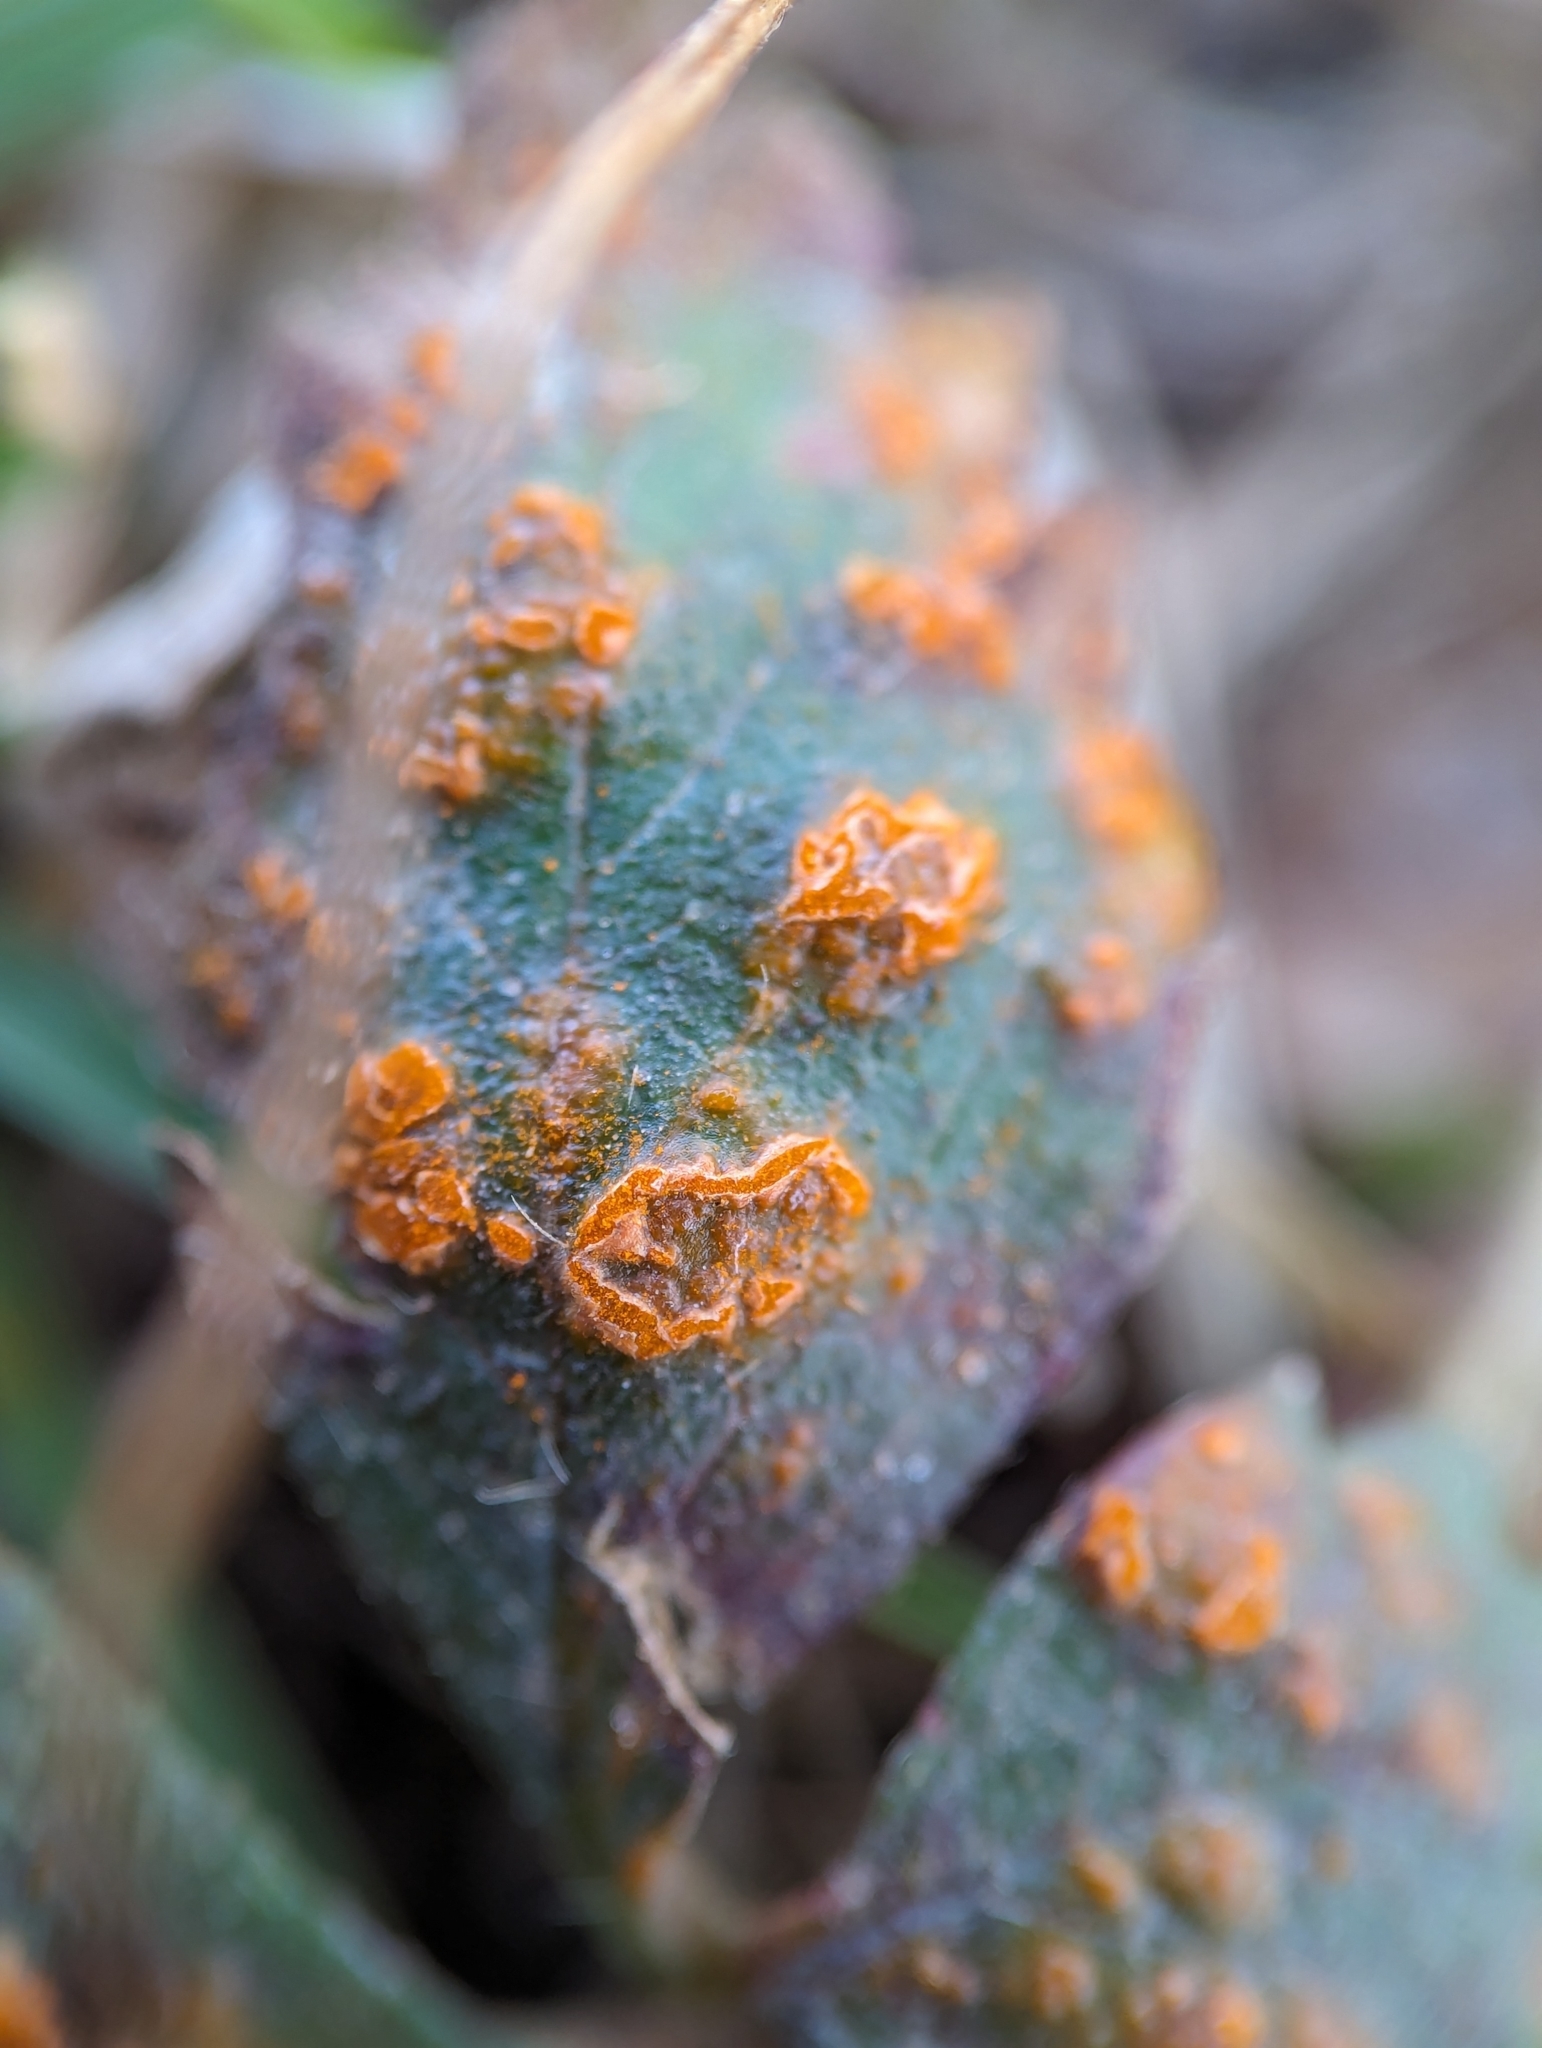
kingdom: Fungi
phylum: Basidiomycota
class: Pucciniomycetes
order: Pucciniales
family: Phragmidiaceae
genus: Phragmidium
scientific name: Phragmidium potentillae
